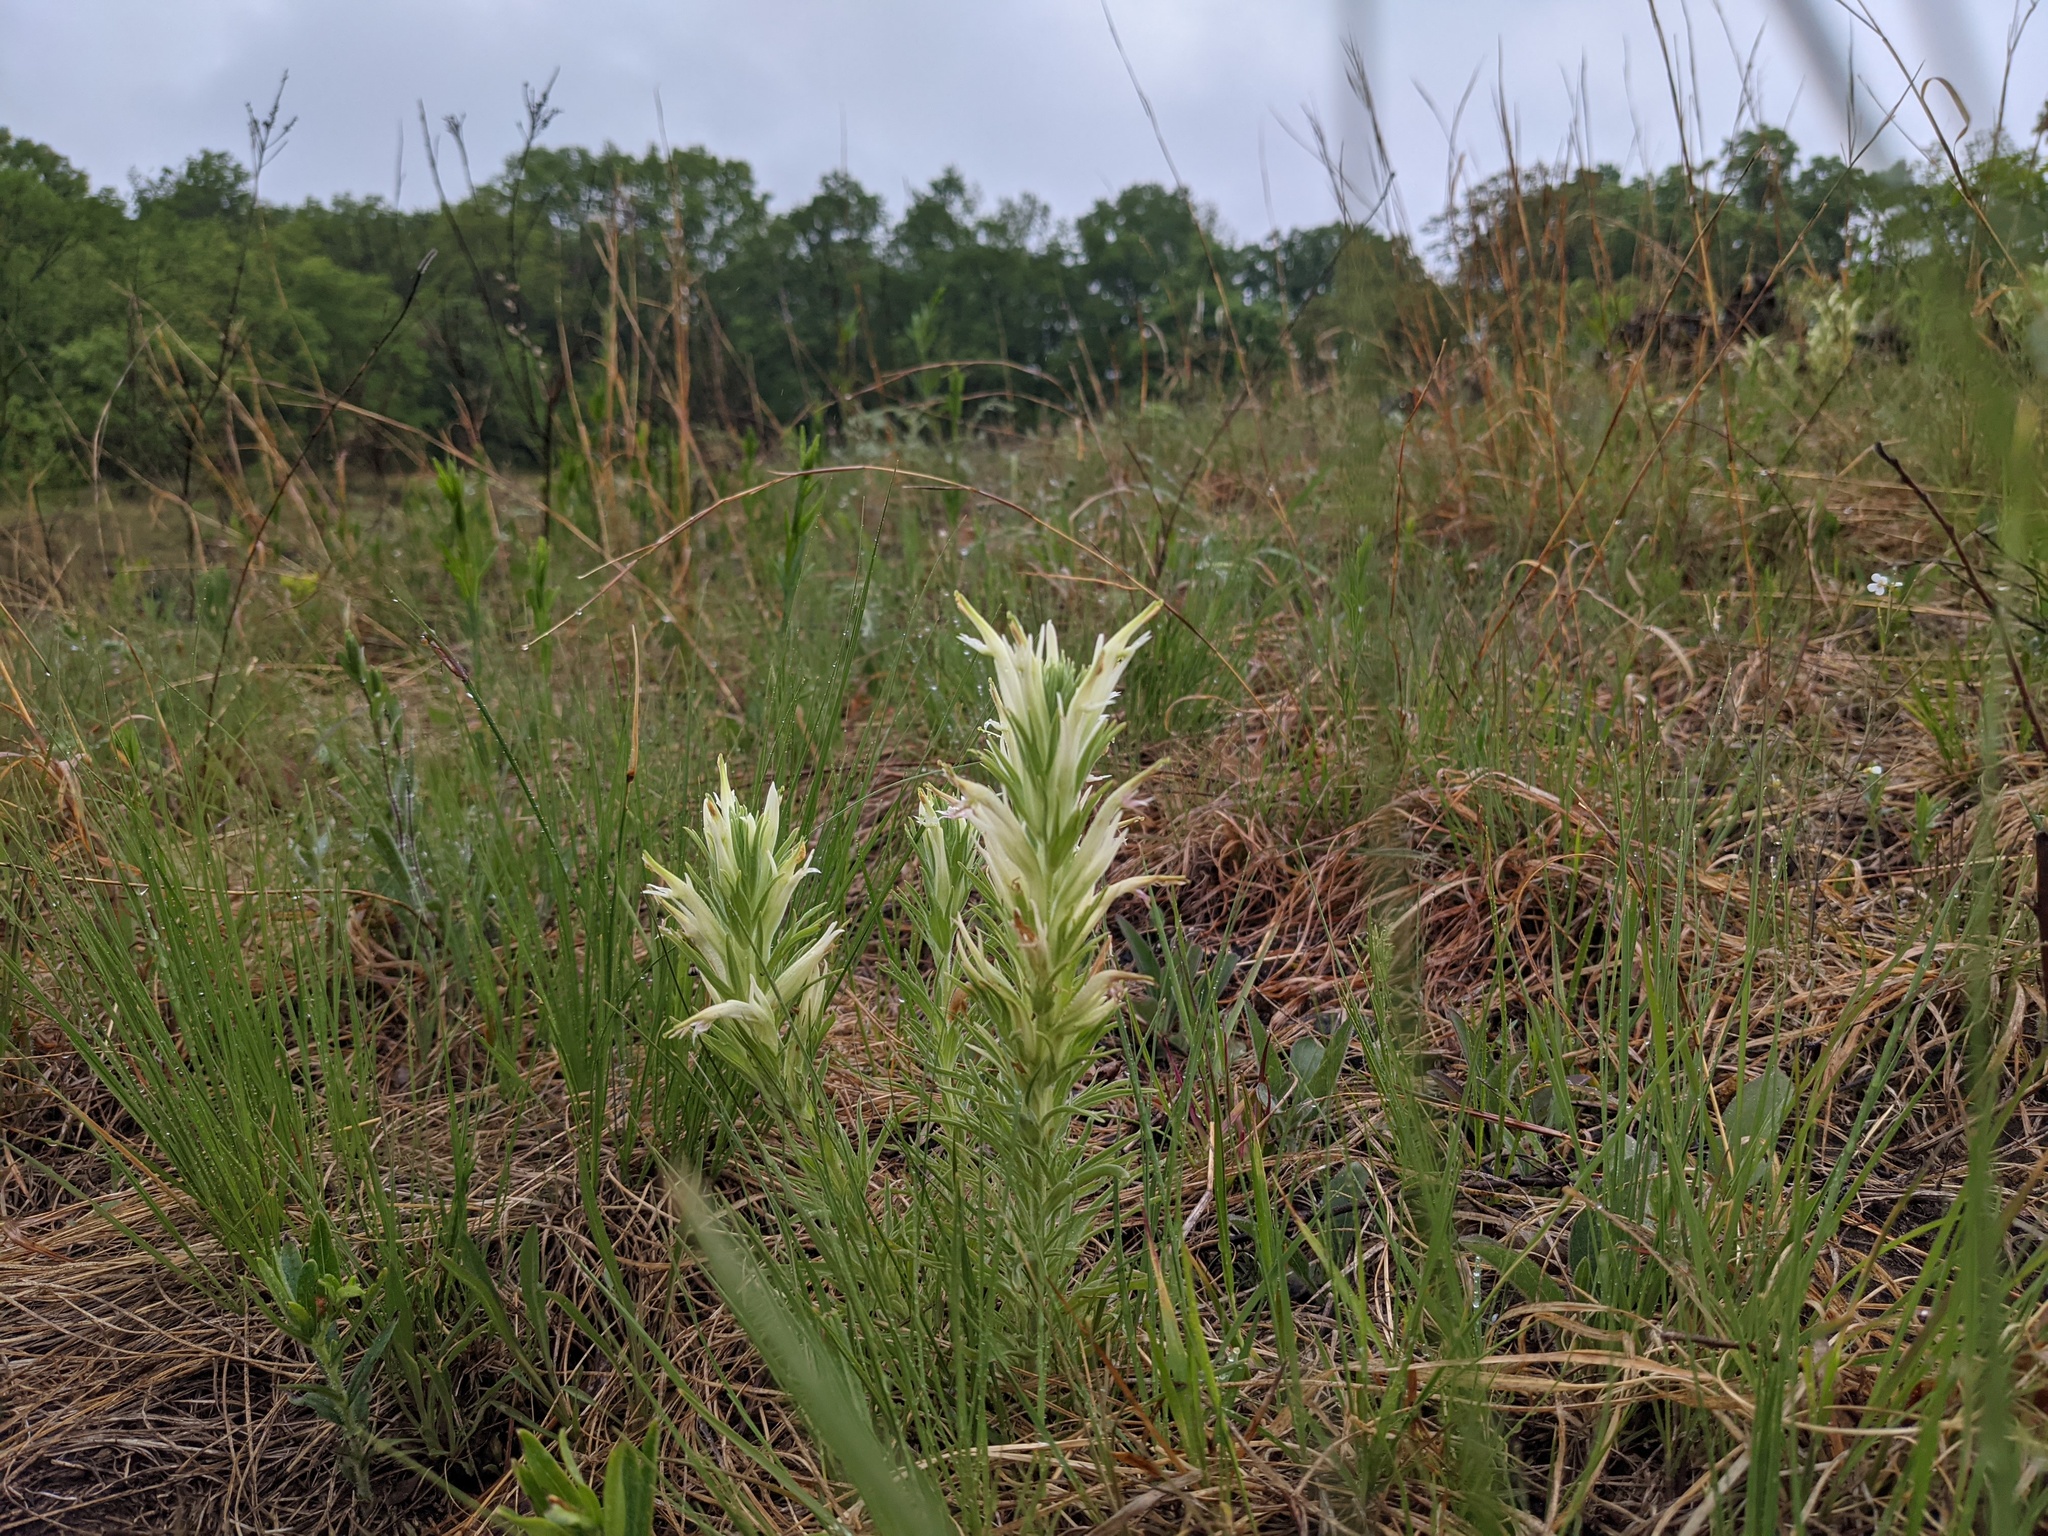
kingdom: Plantae
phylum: Tracheophyta
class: Magnoliopsida
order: Lamiales
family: Orobanchaceae
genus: Castilleja
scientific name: Castilleja sessiliflora
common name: Downy paintbrush
